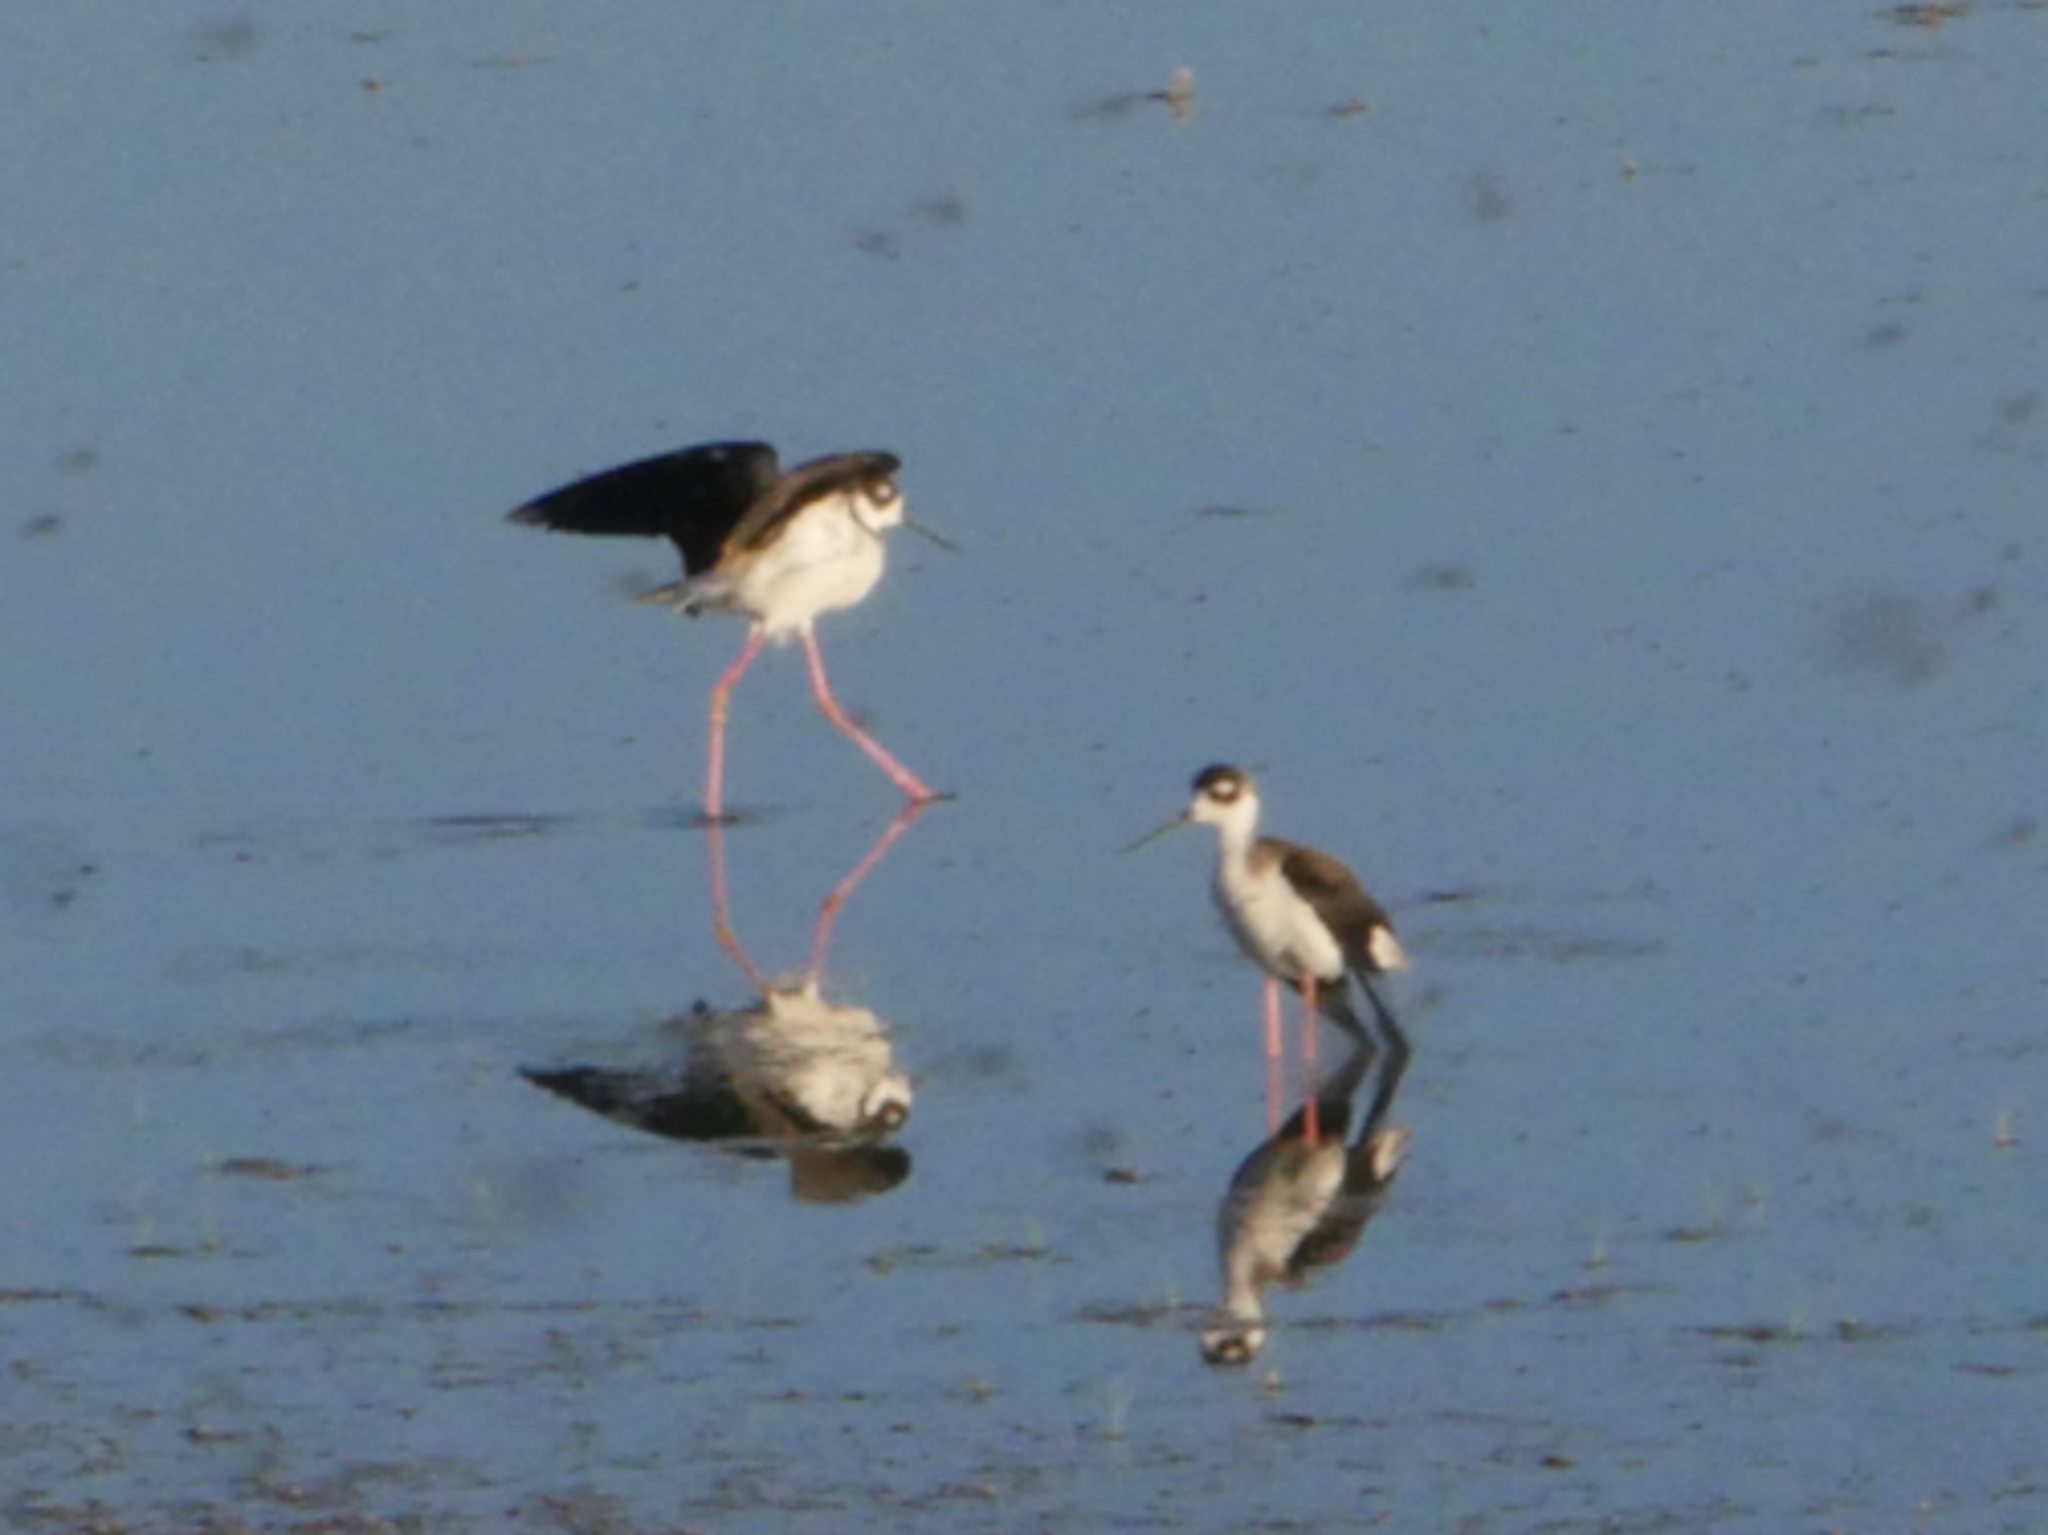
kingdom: Animalia
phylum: Chordata
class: Aves
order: Charadriiformes
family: Recurvirostridae
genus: Himantopus
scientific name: Himantopus mexicanus
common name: Black-necked stilt
